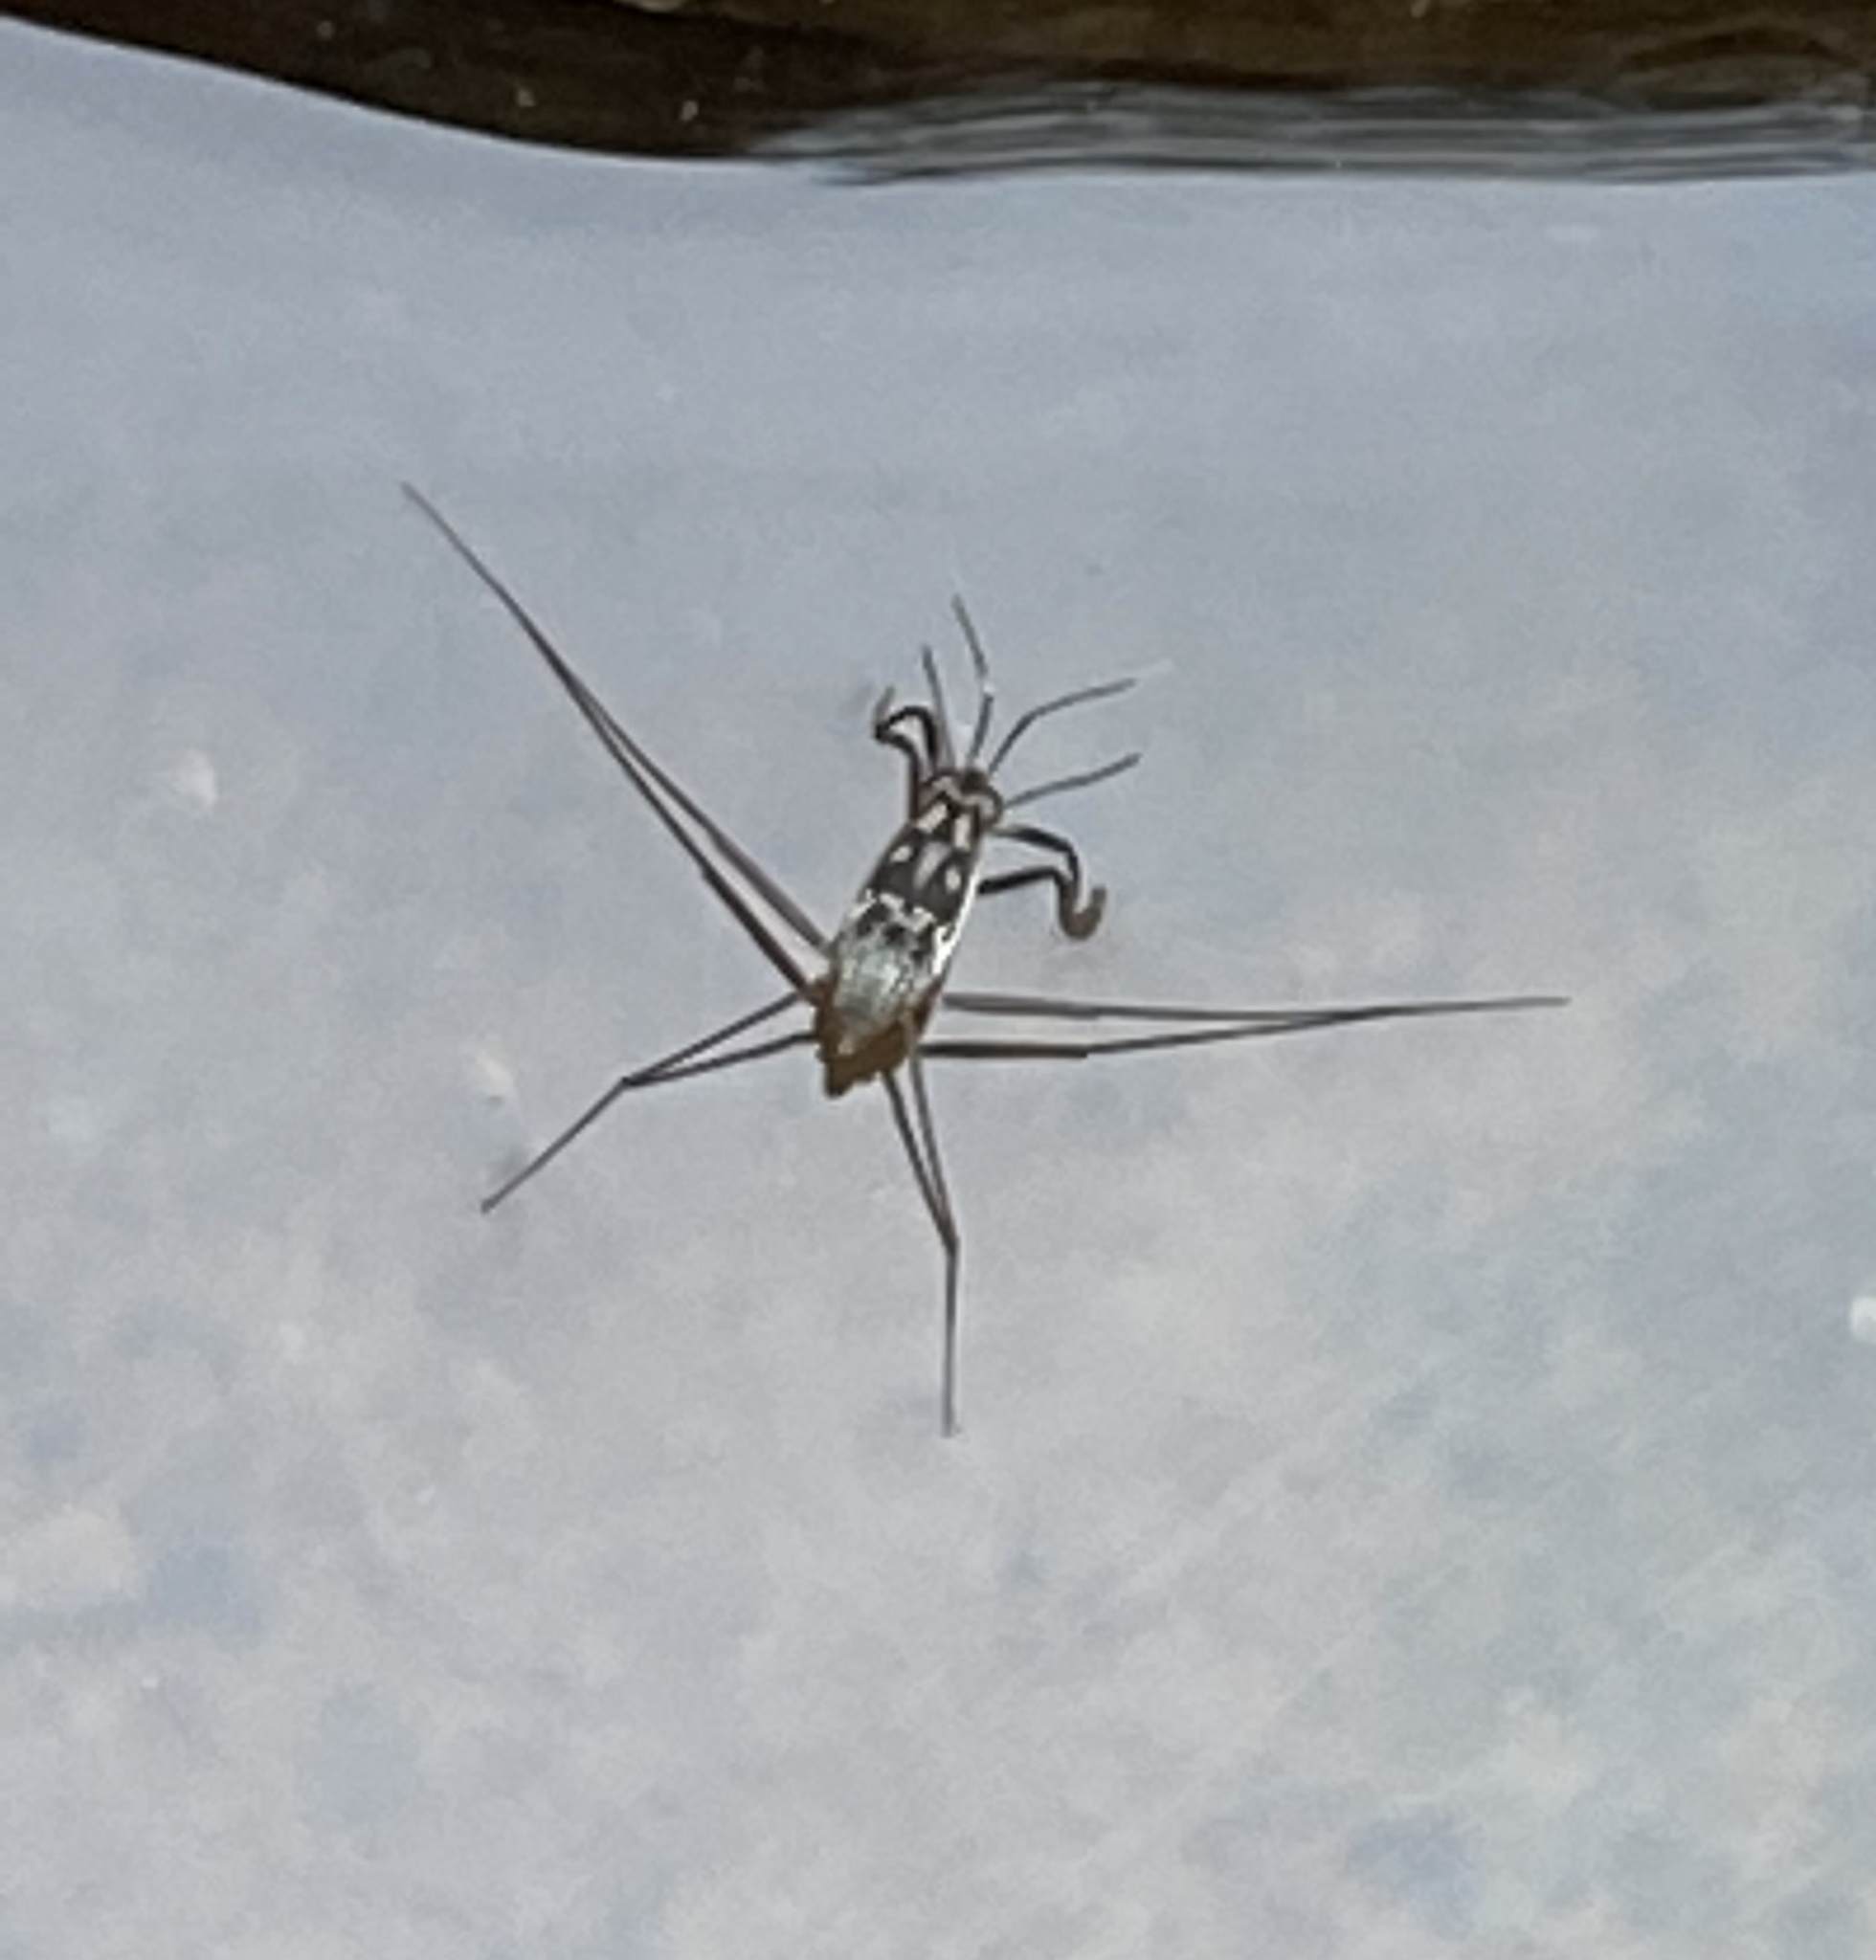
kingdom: Animalia
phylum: Arthropoda
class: Insecta
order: Hemiptera
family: Gerridae
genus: Trepobates
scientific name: Trepobates subnitidus
